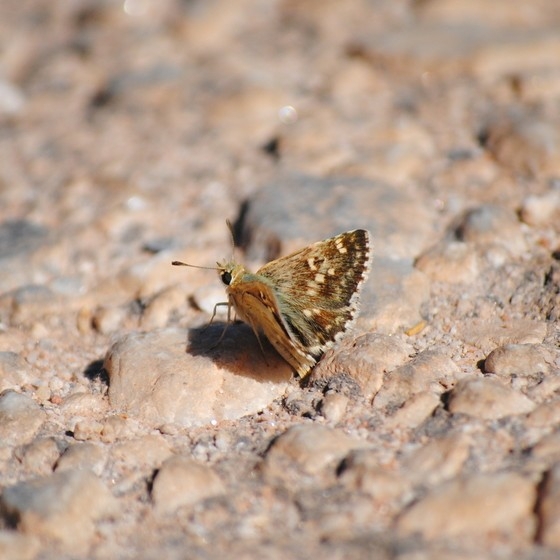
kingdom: Animalia
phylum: Arthropoda
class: Insecta
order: Lepidoptera
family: Hesperiidae
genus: Syrichtus
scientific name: Syrichtus Muschampia proto
